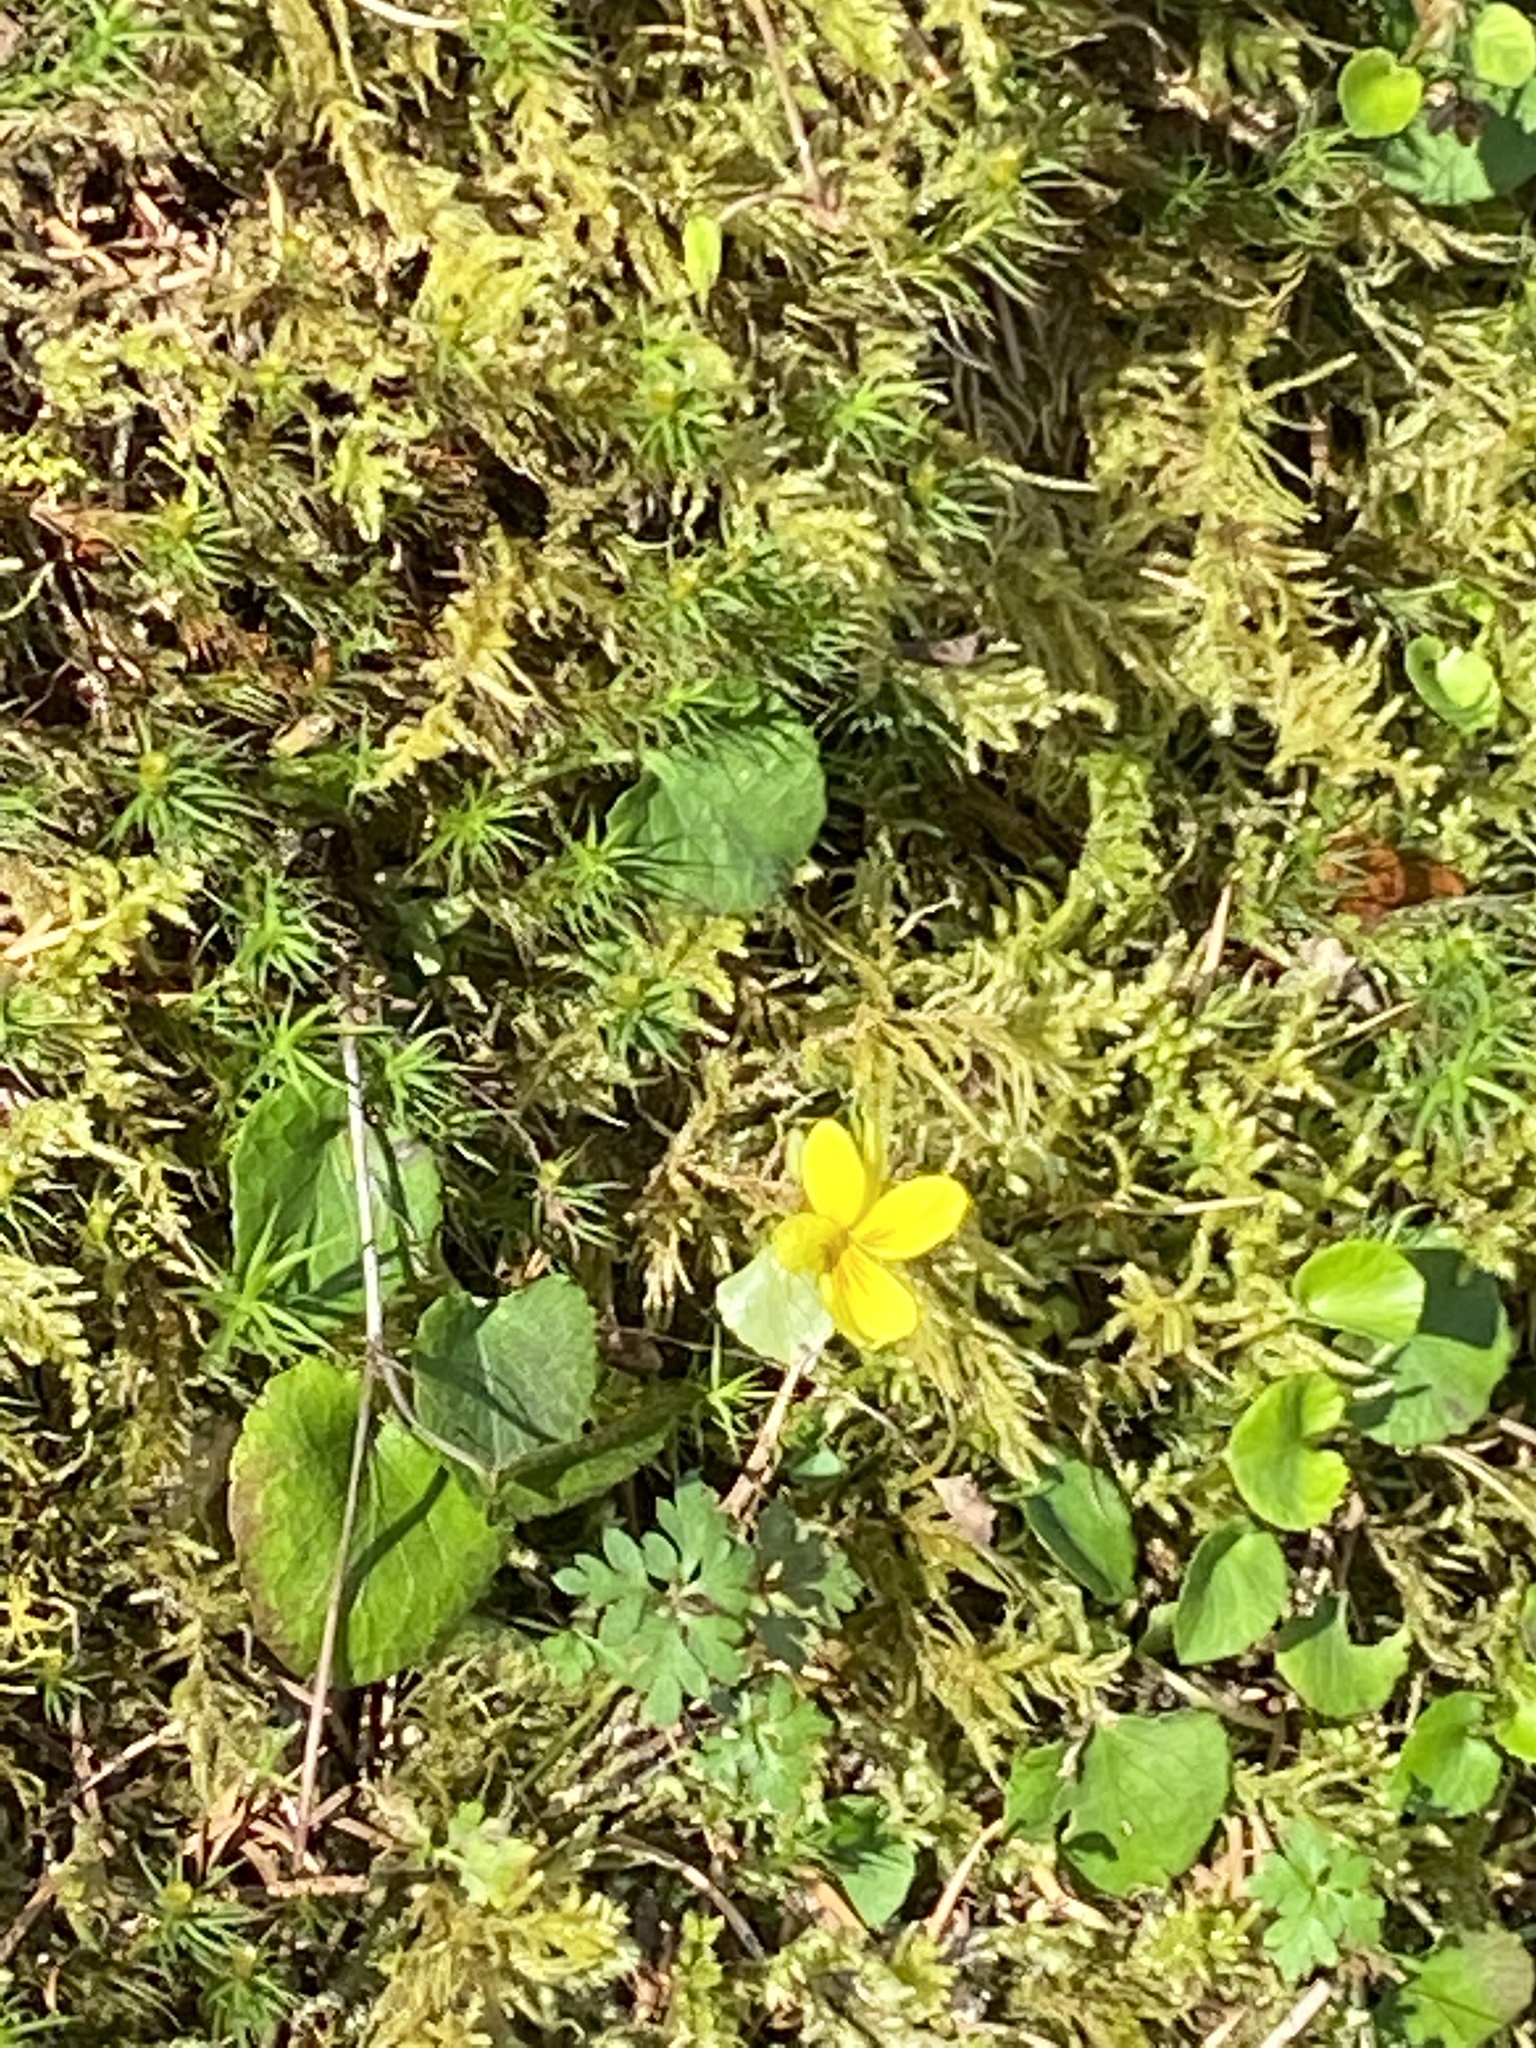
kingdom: Plantae
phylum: Tracheophyta
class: Magnoliopsida
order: Malpighiales
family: Violaceae
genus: Viola
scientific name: Viola sempervirens
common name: Evergreen violet
